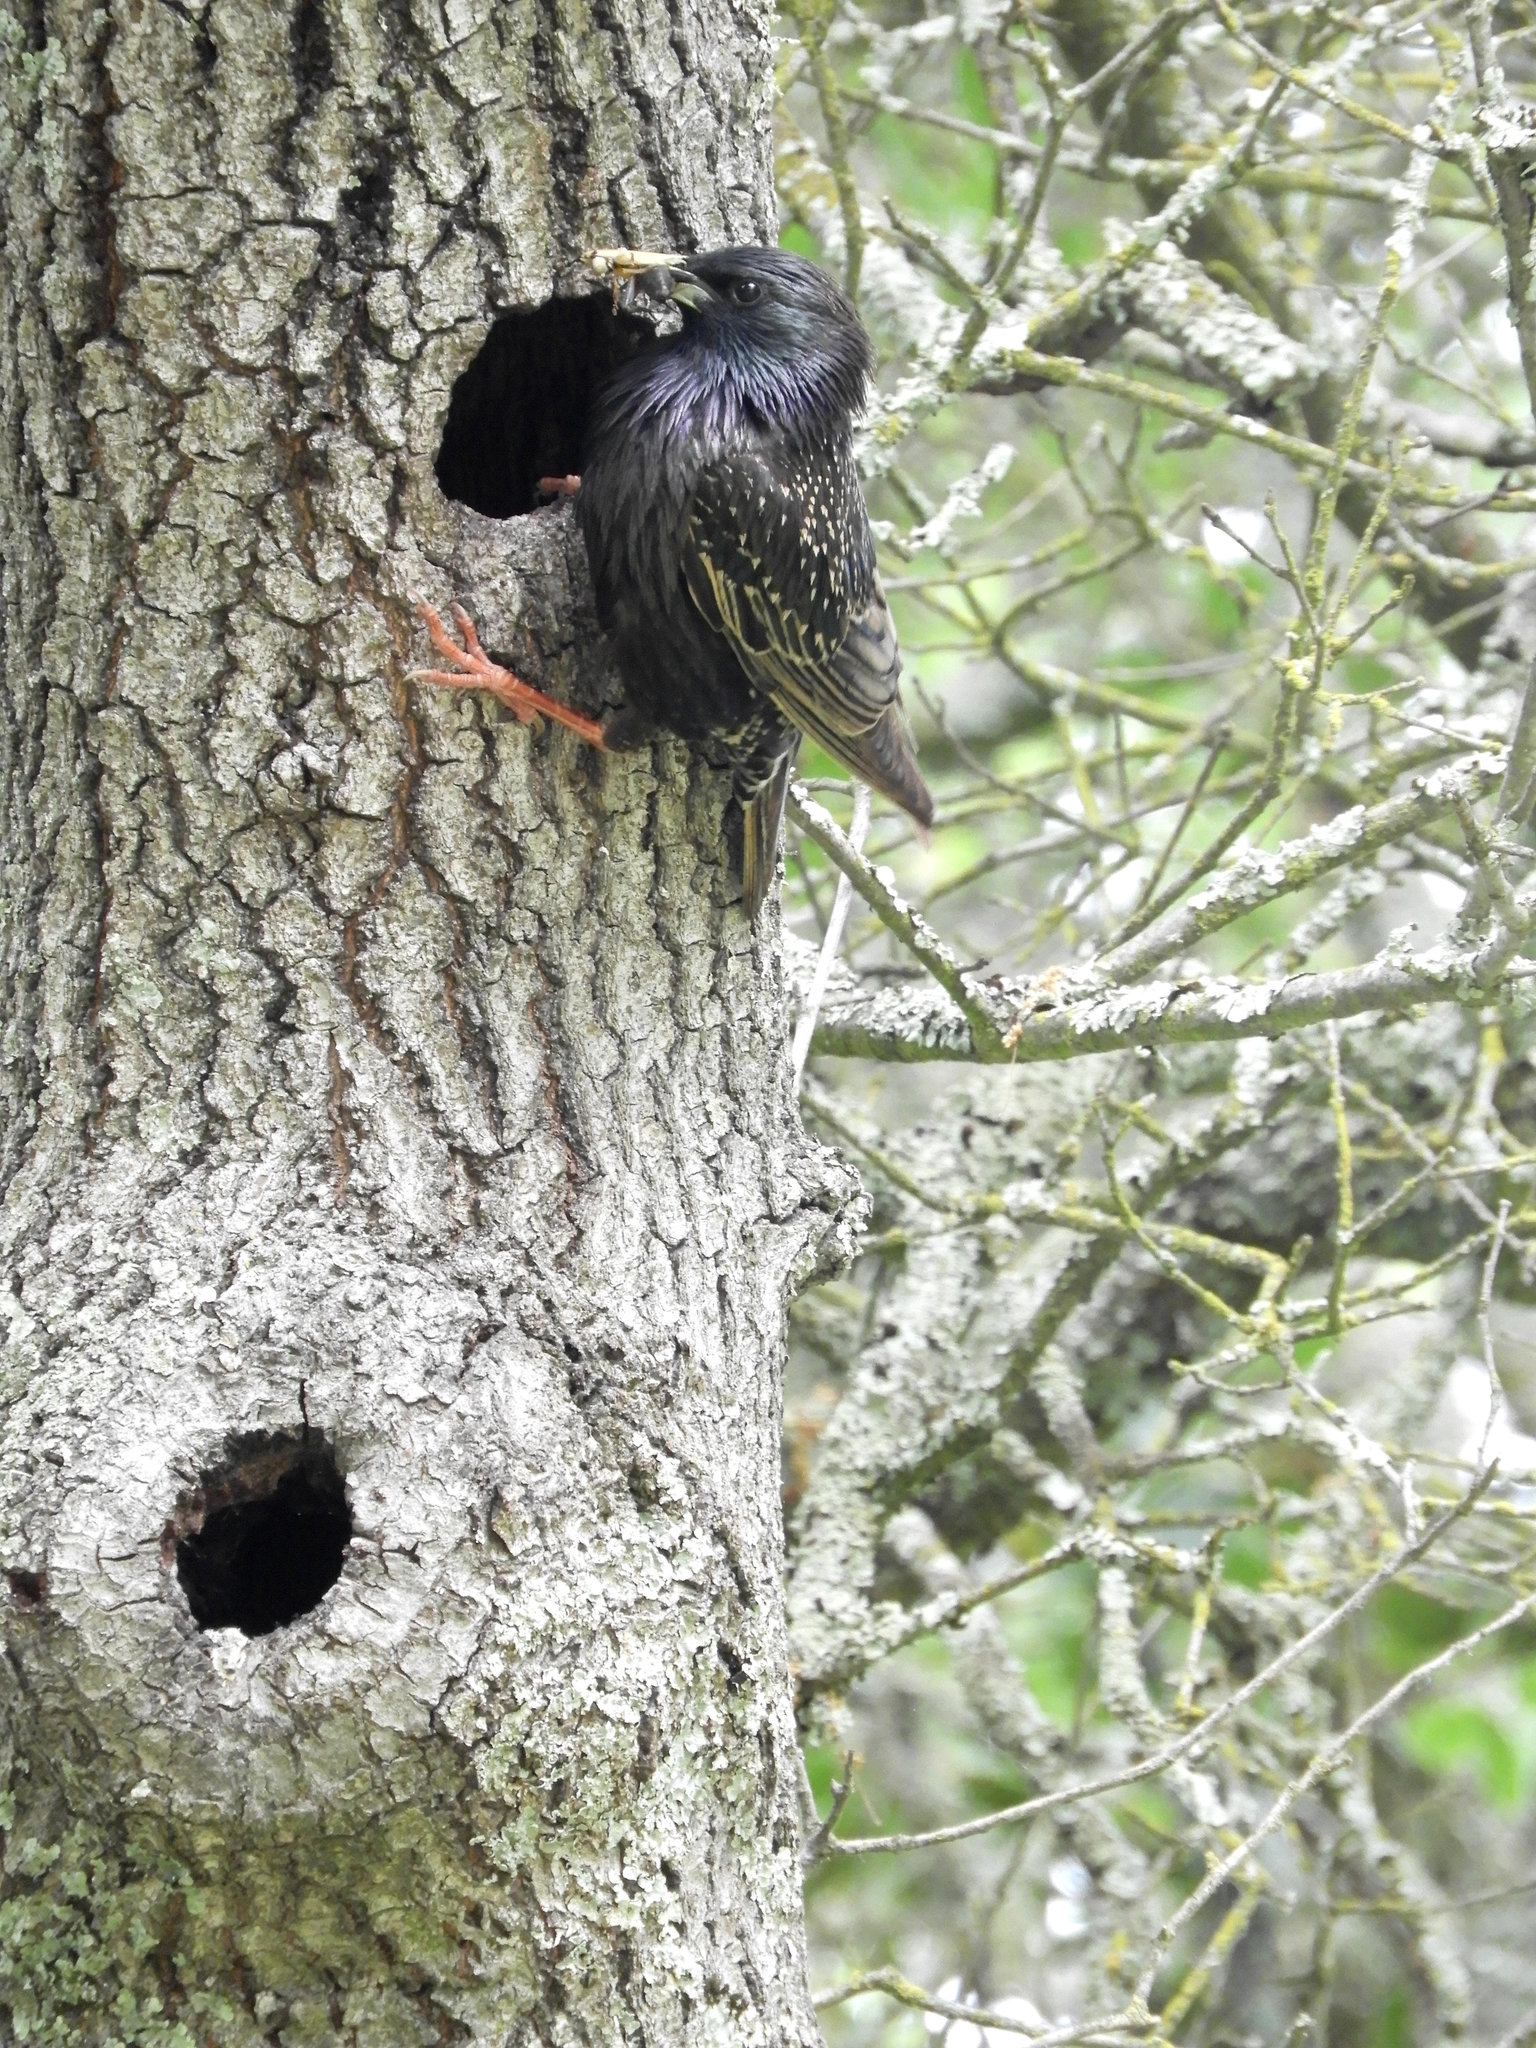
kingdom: Animalia
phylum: Chordata
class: Aves
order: Passeriformes
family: Sturnidae
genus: Sturnus
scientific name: Sturnus vulgaris
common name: Common starling
